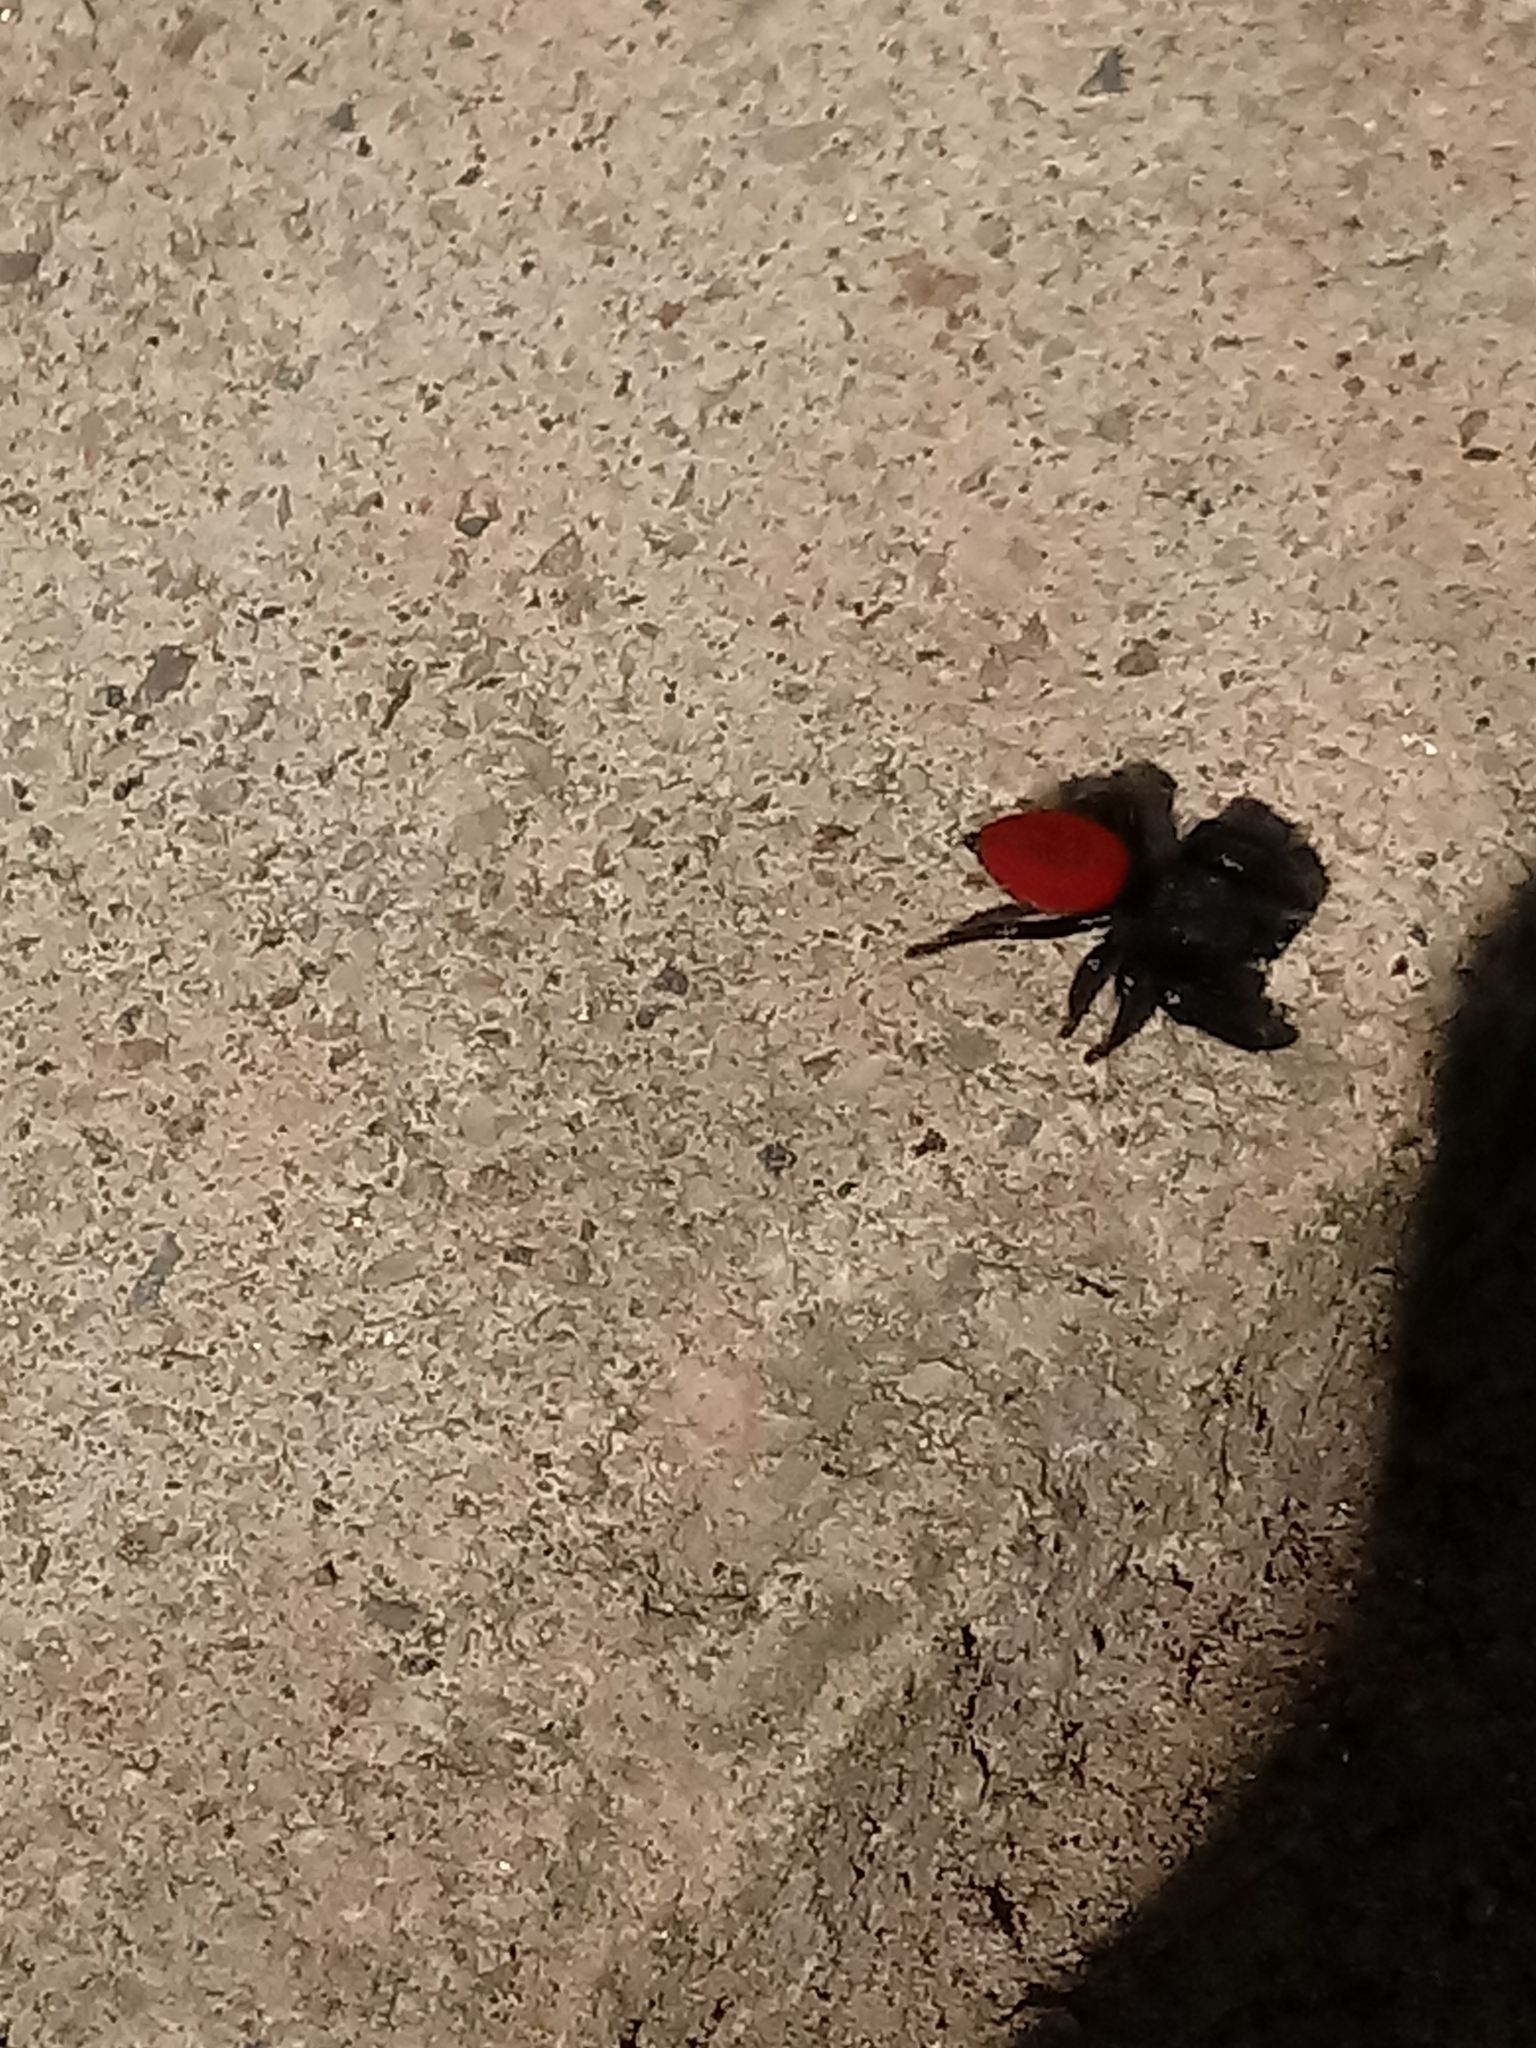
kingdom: Animalia
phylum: Arthropoda
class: Arachnida
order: Araneae
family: Salticidae
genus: Phidippus
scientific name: Phidippus johnsoni
